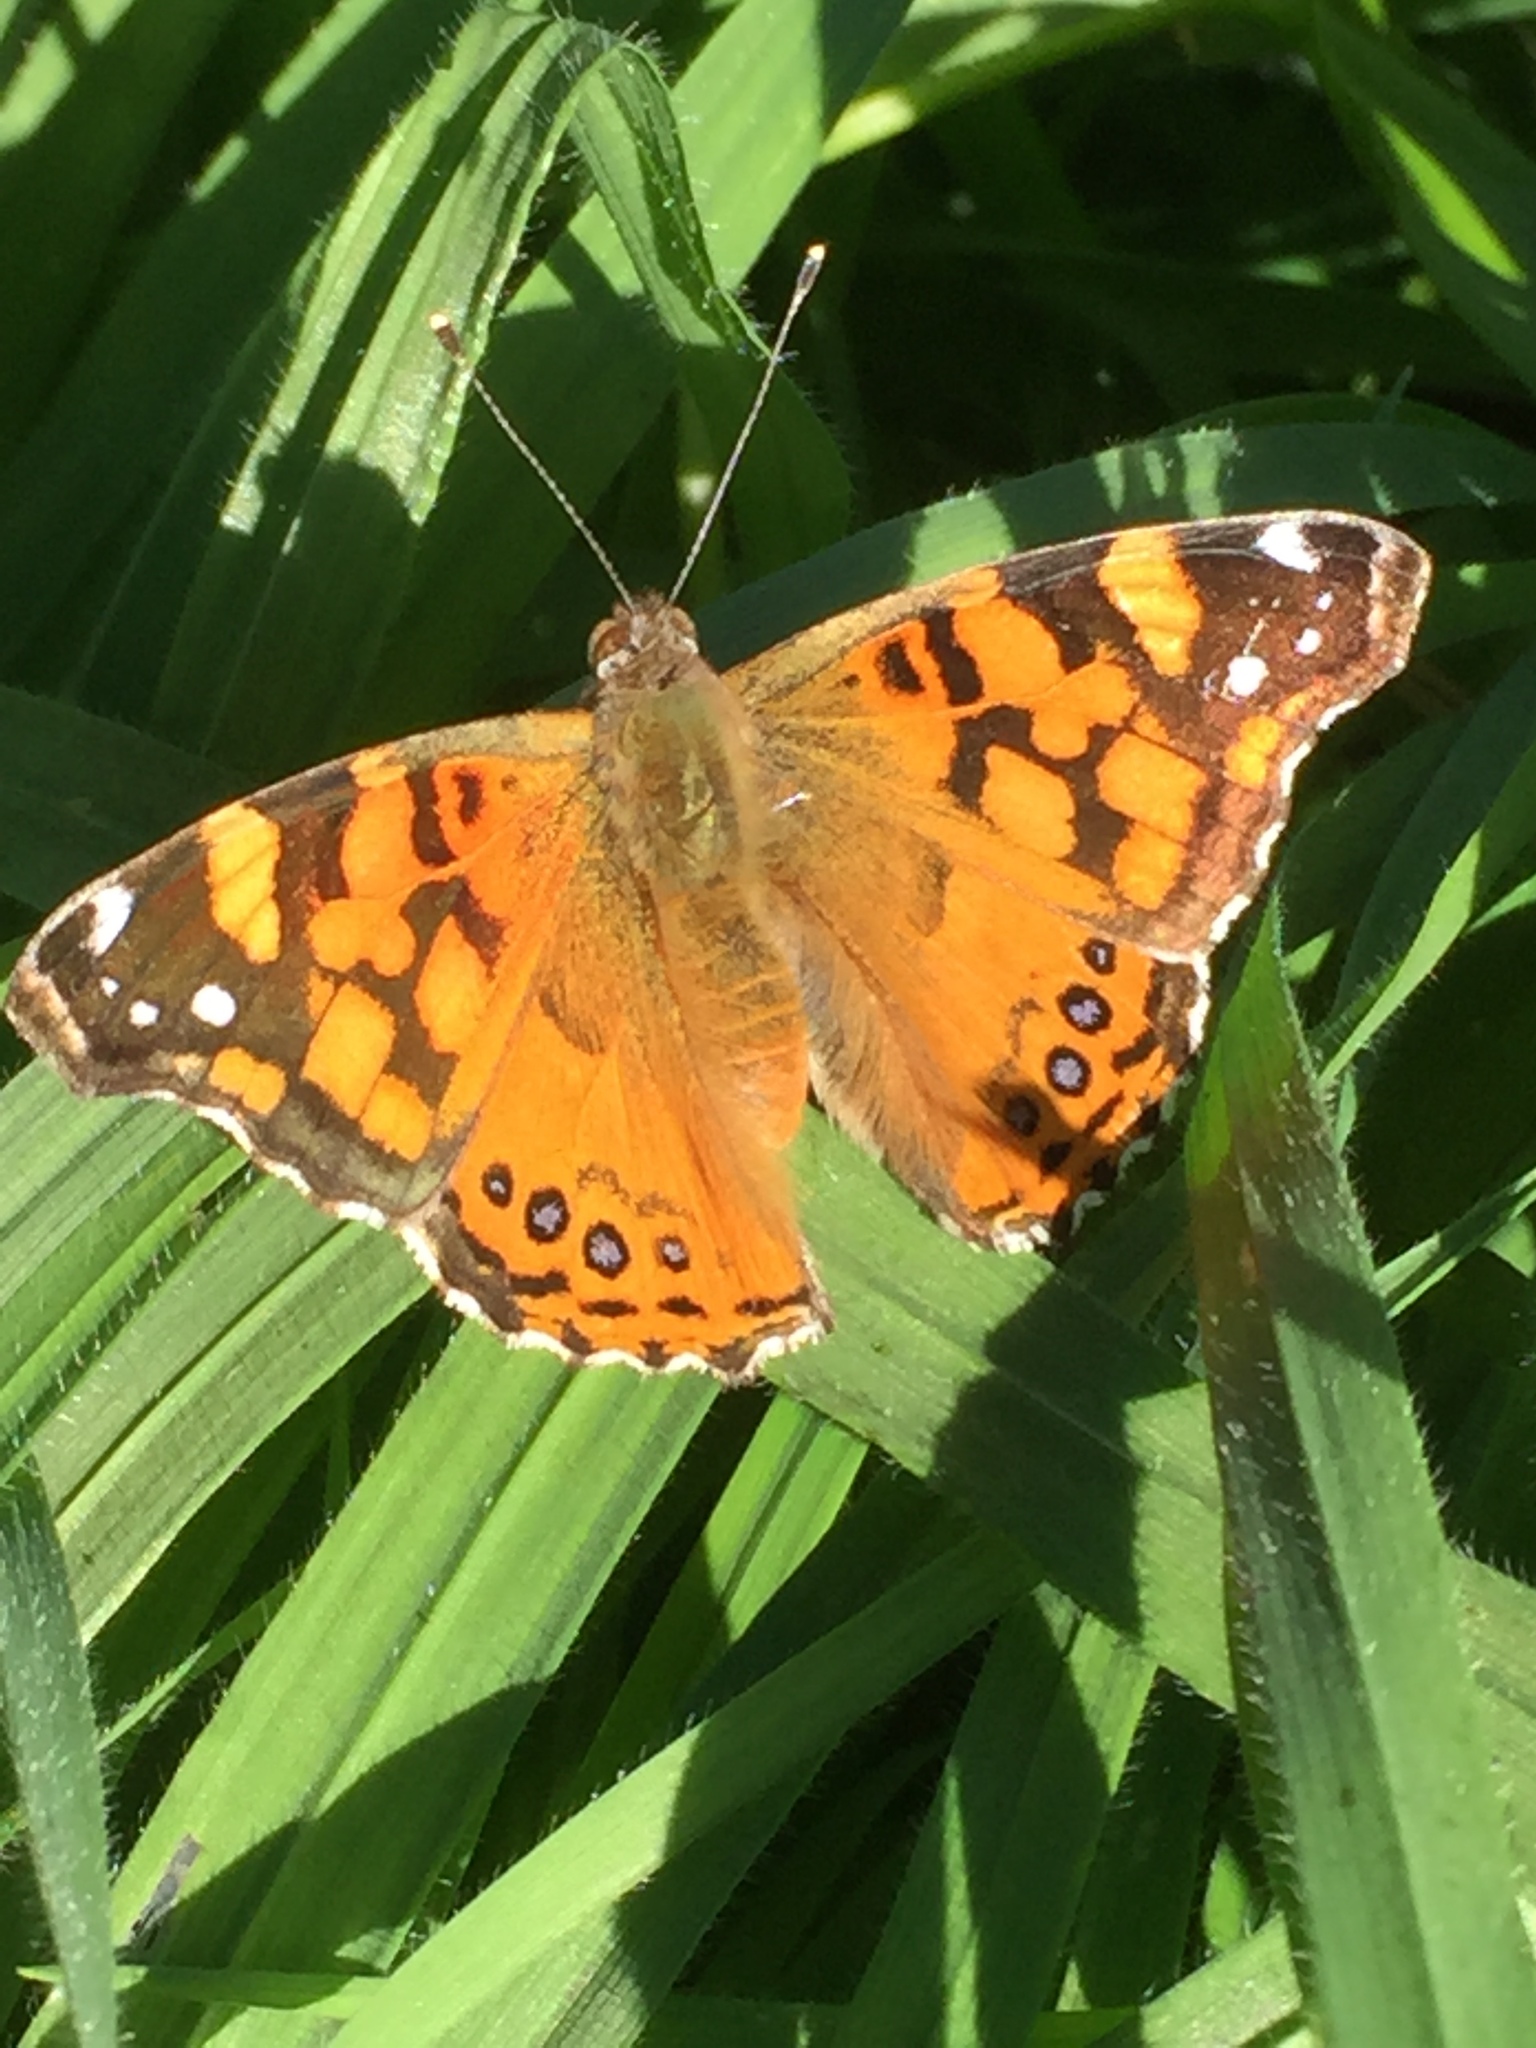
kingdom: Animalia
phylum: Arthropoda
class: Insecta
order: Lepidoptera
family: Nymphalidae
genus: Vanessa
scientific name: Vanessa annabella
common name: West coast lady
